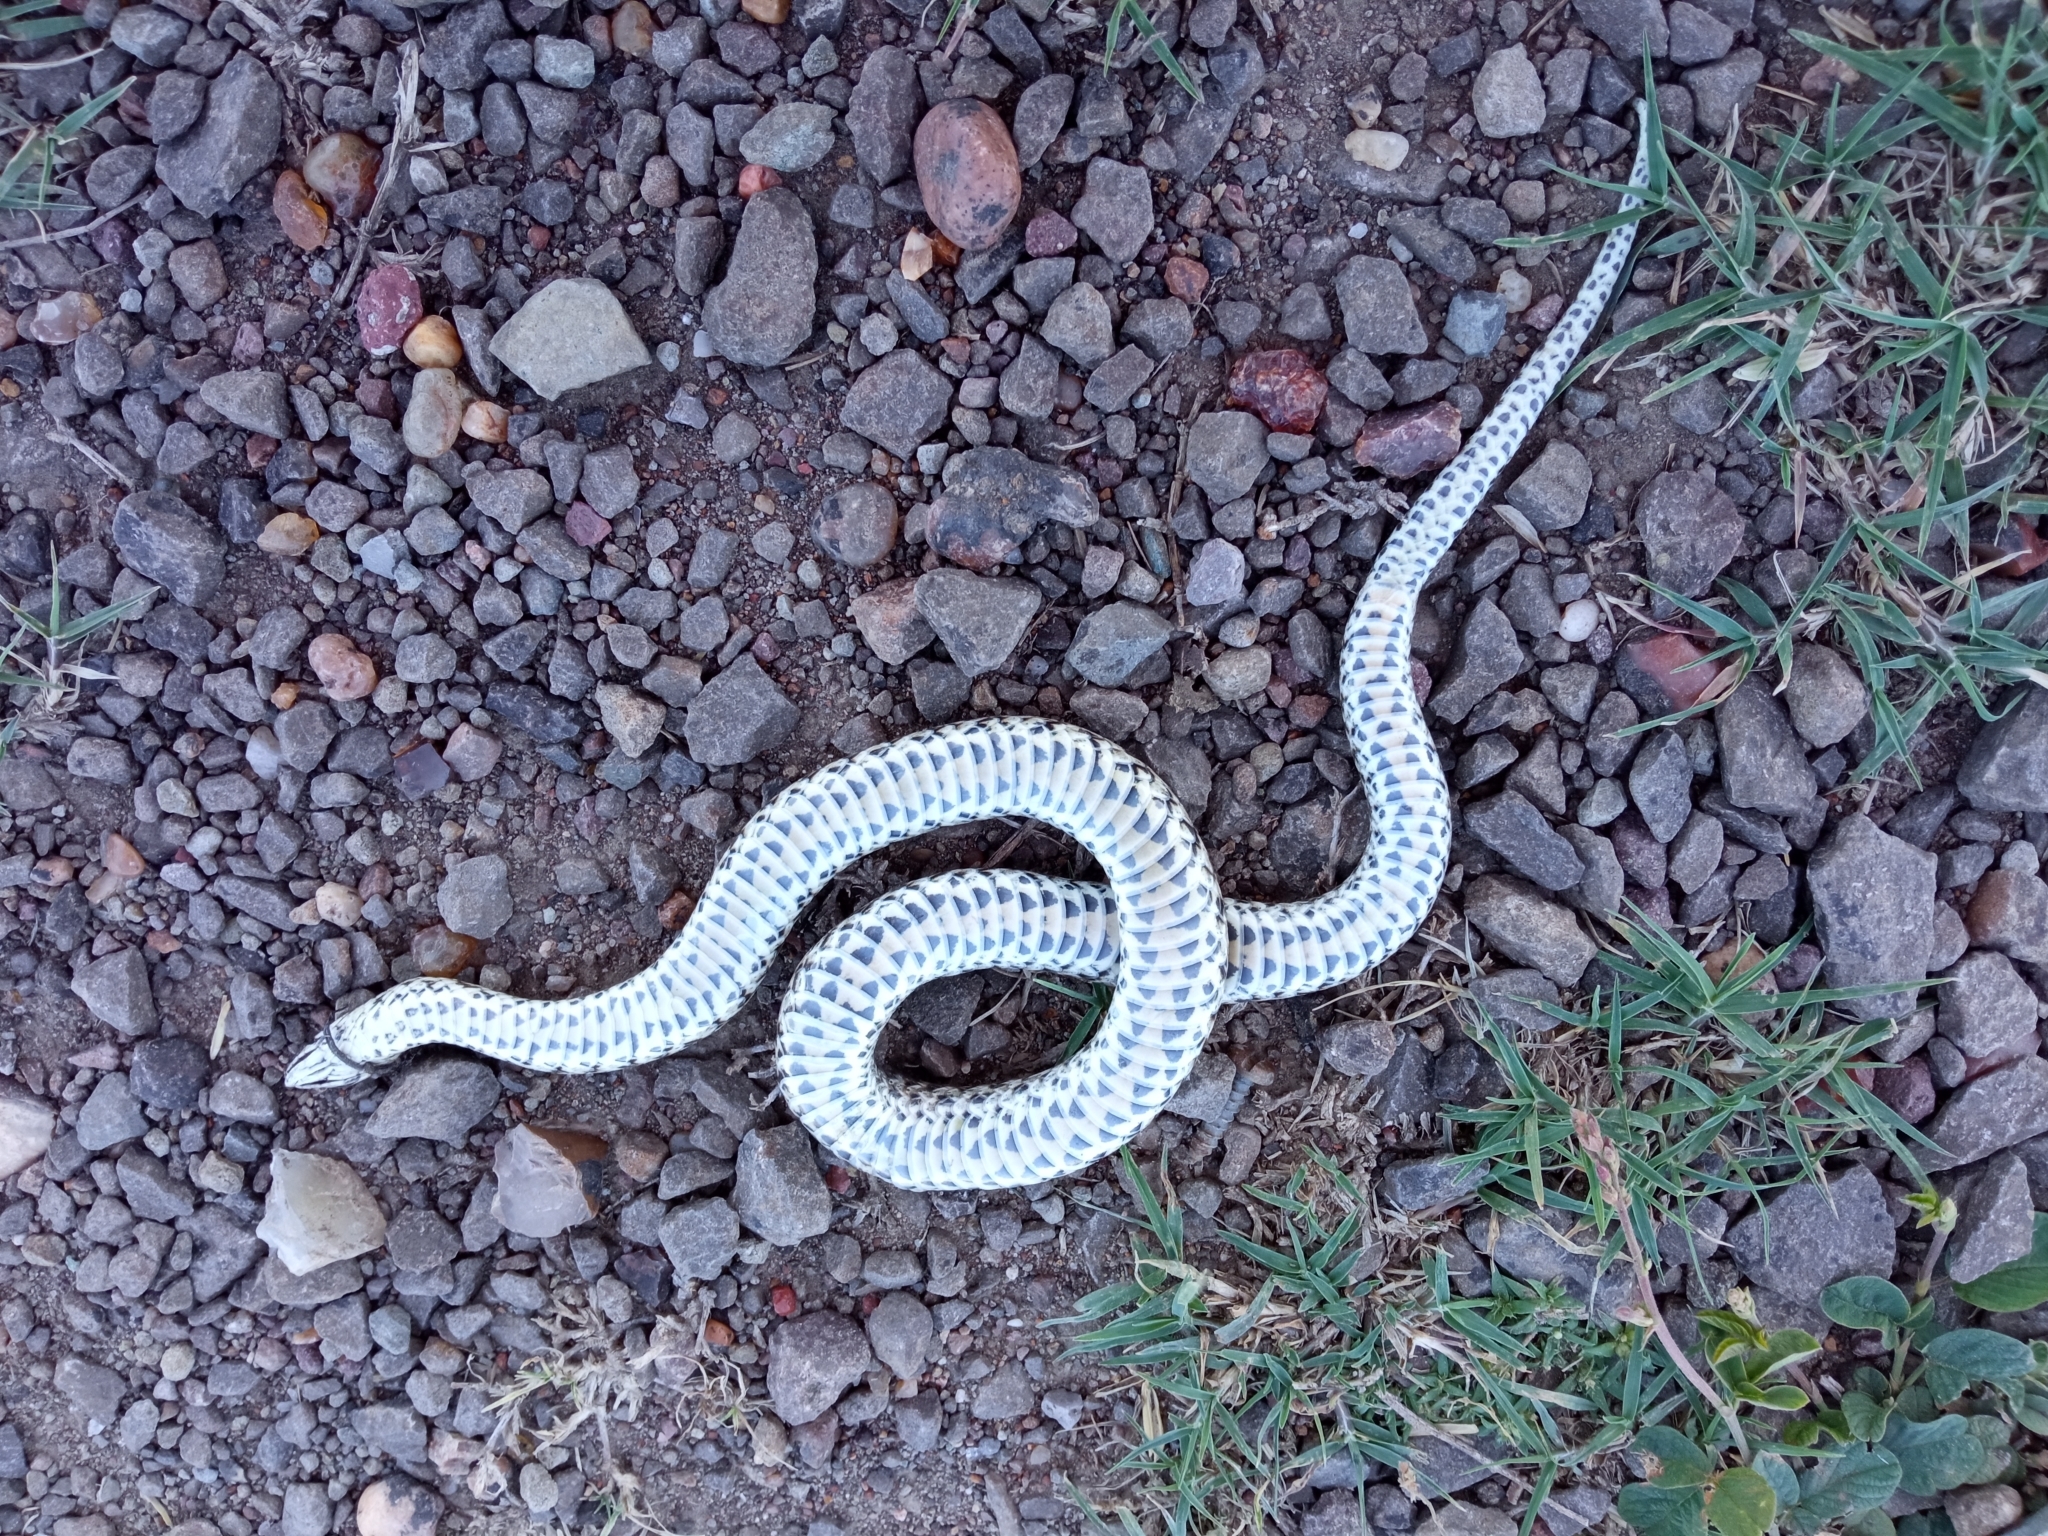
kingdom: Animalia
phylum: Chordata
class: Squamata
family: Colubridae
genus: Tachymenis
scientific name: Tachymenis
